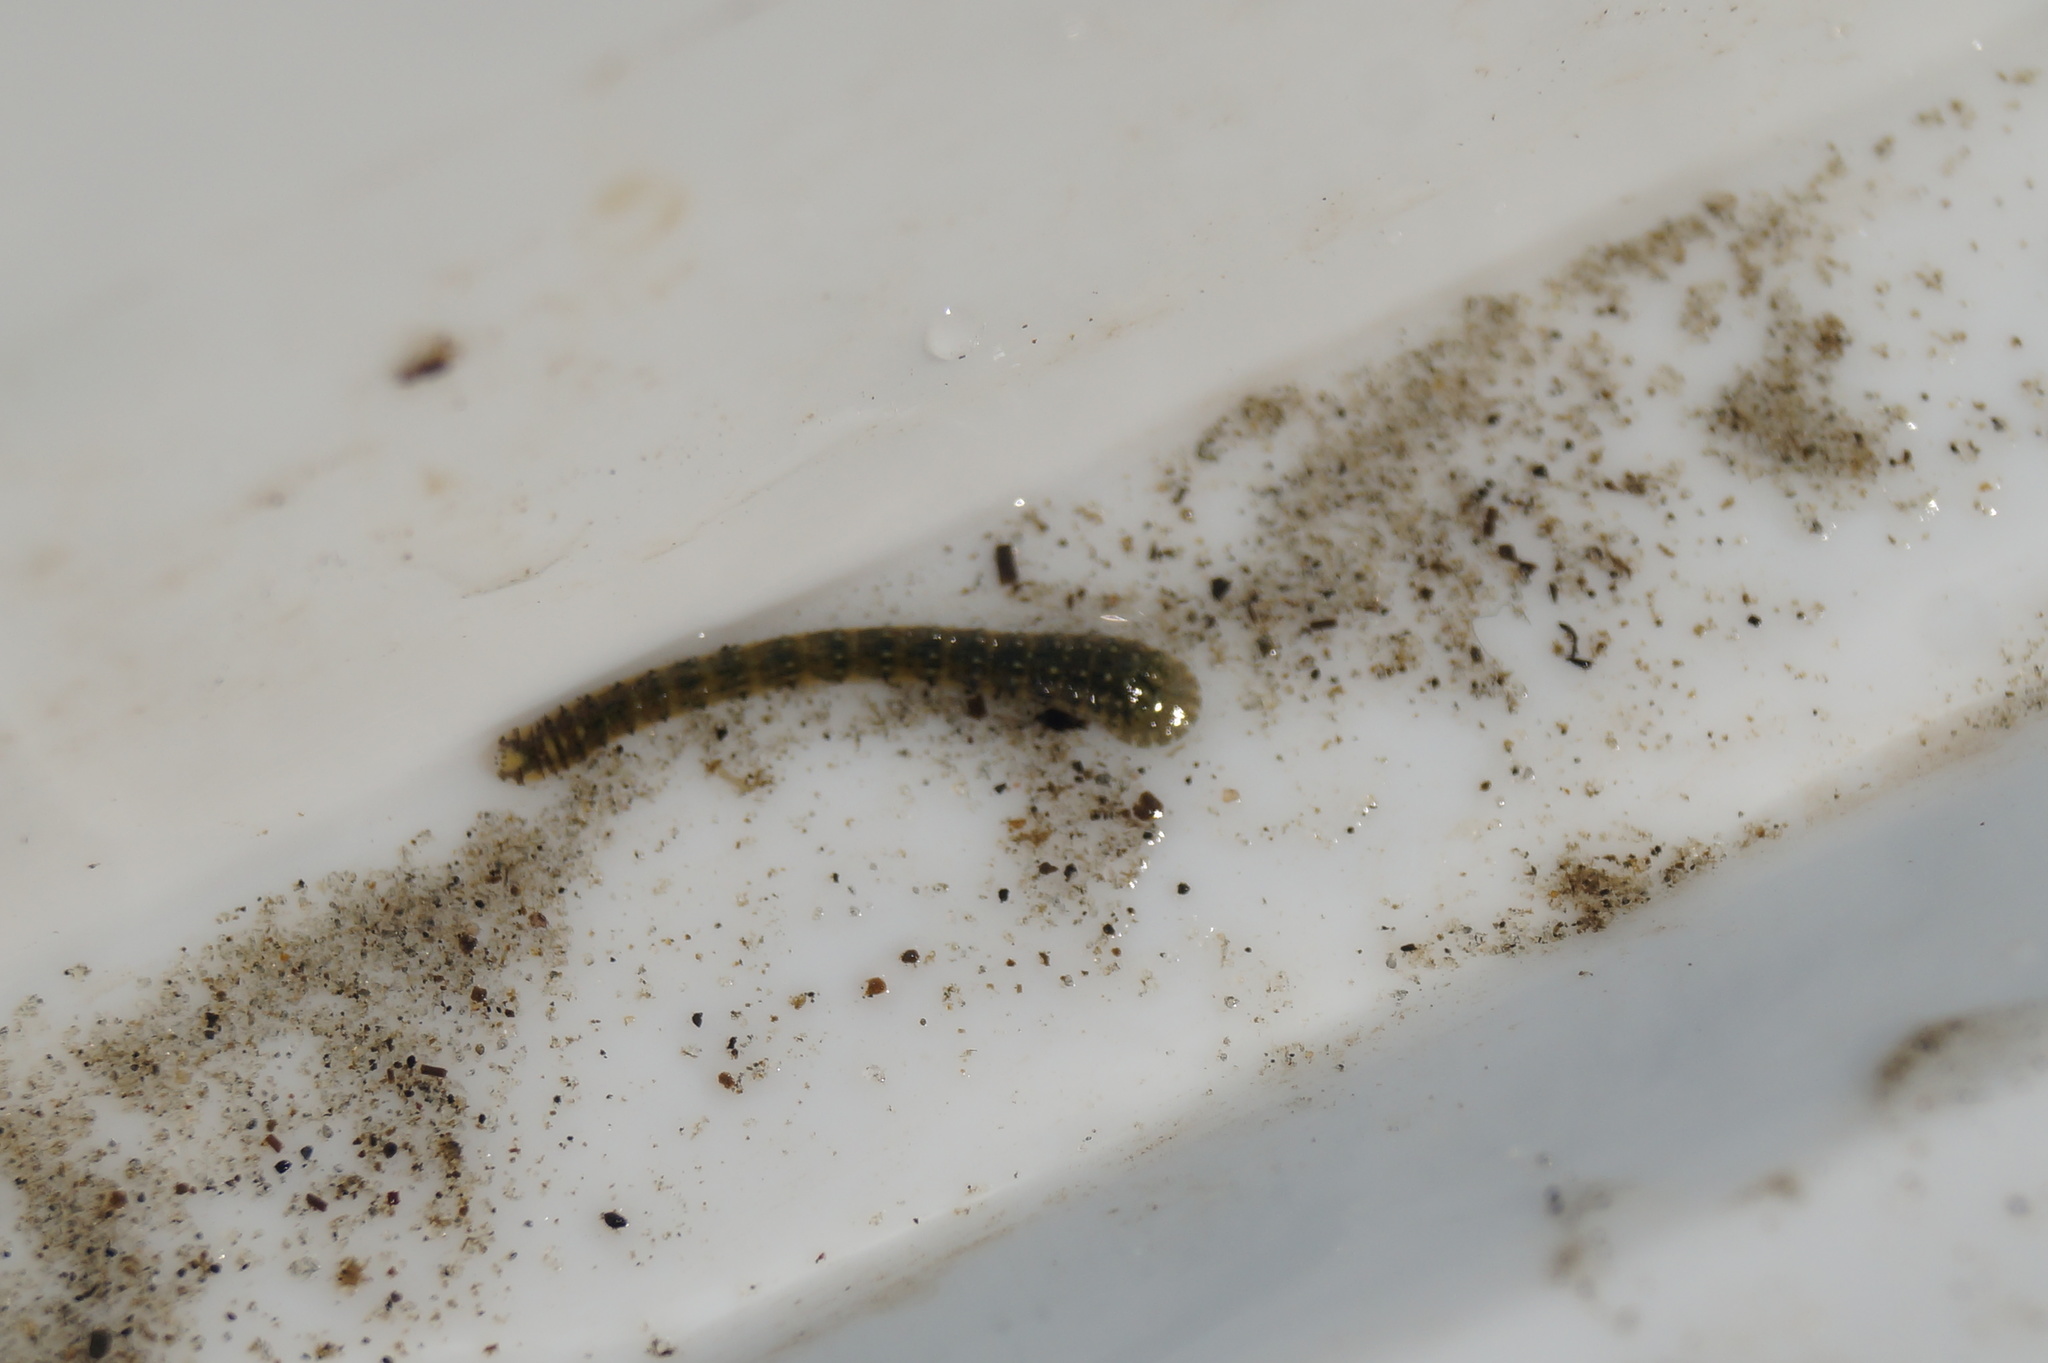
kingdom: Animalia
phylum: Annelida
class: Clitellata
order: Rhynchobdellida
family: Glossiphoniidae
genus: Hemiclepsis
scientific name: Hemiclepsis marginata
